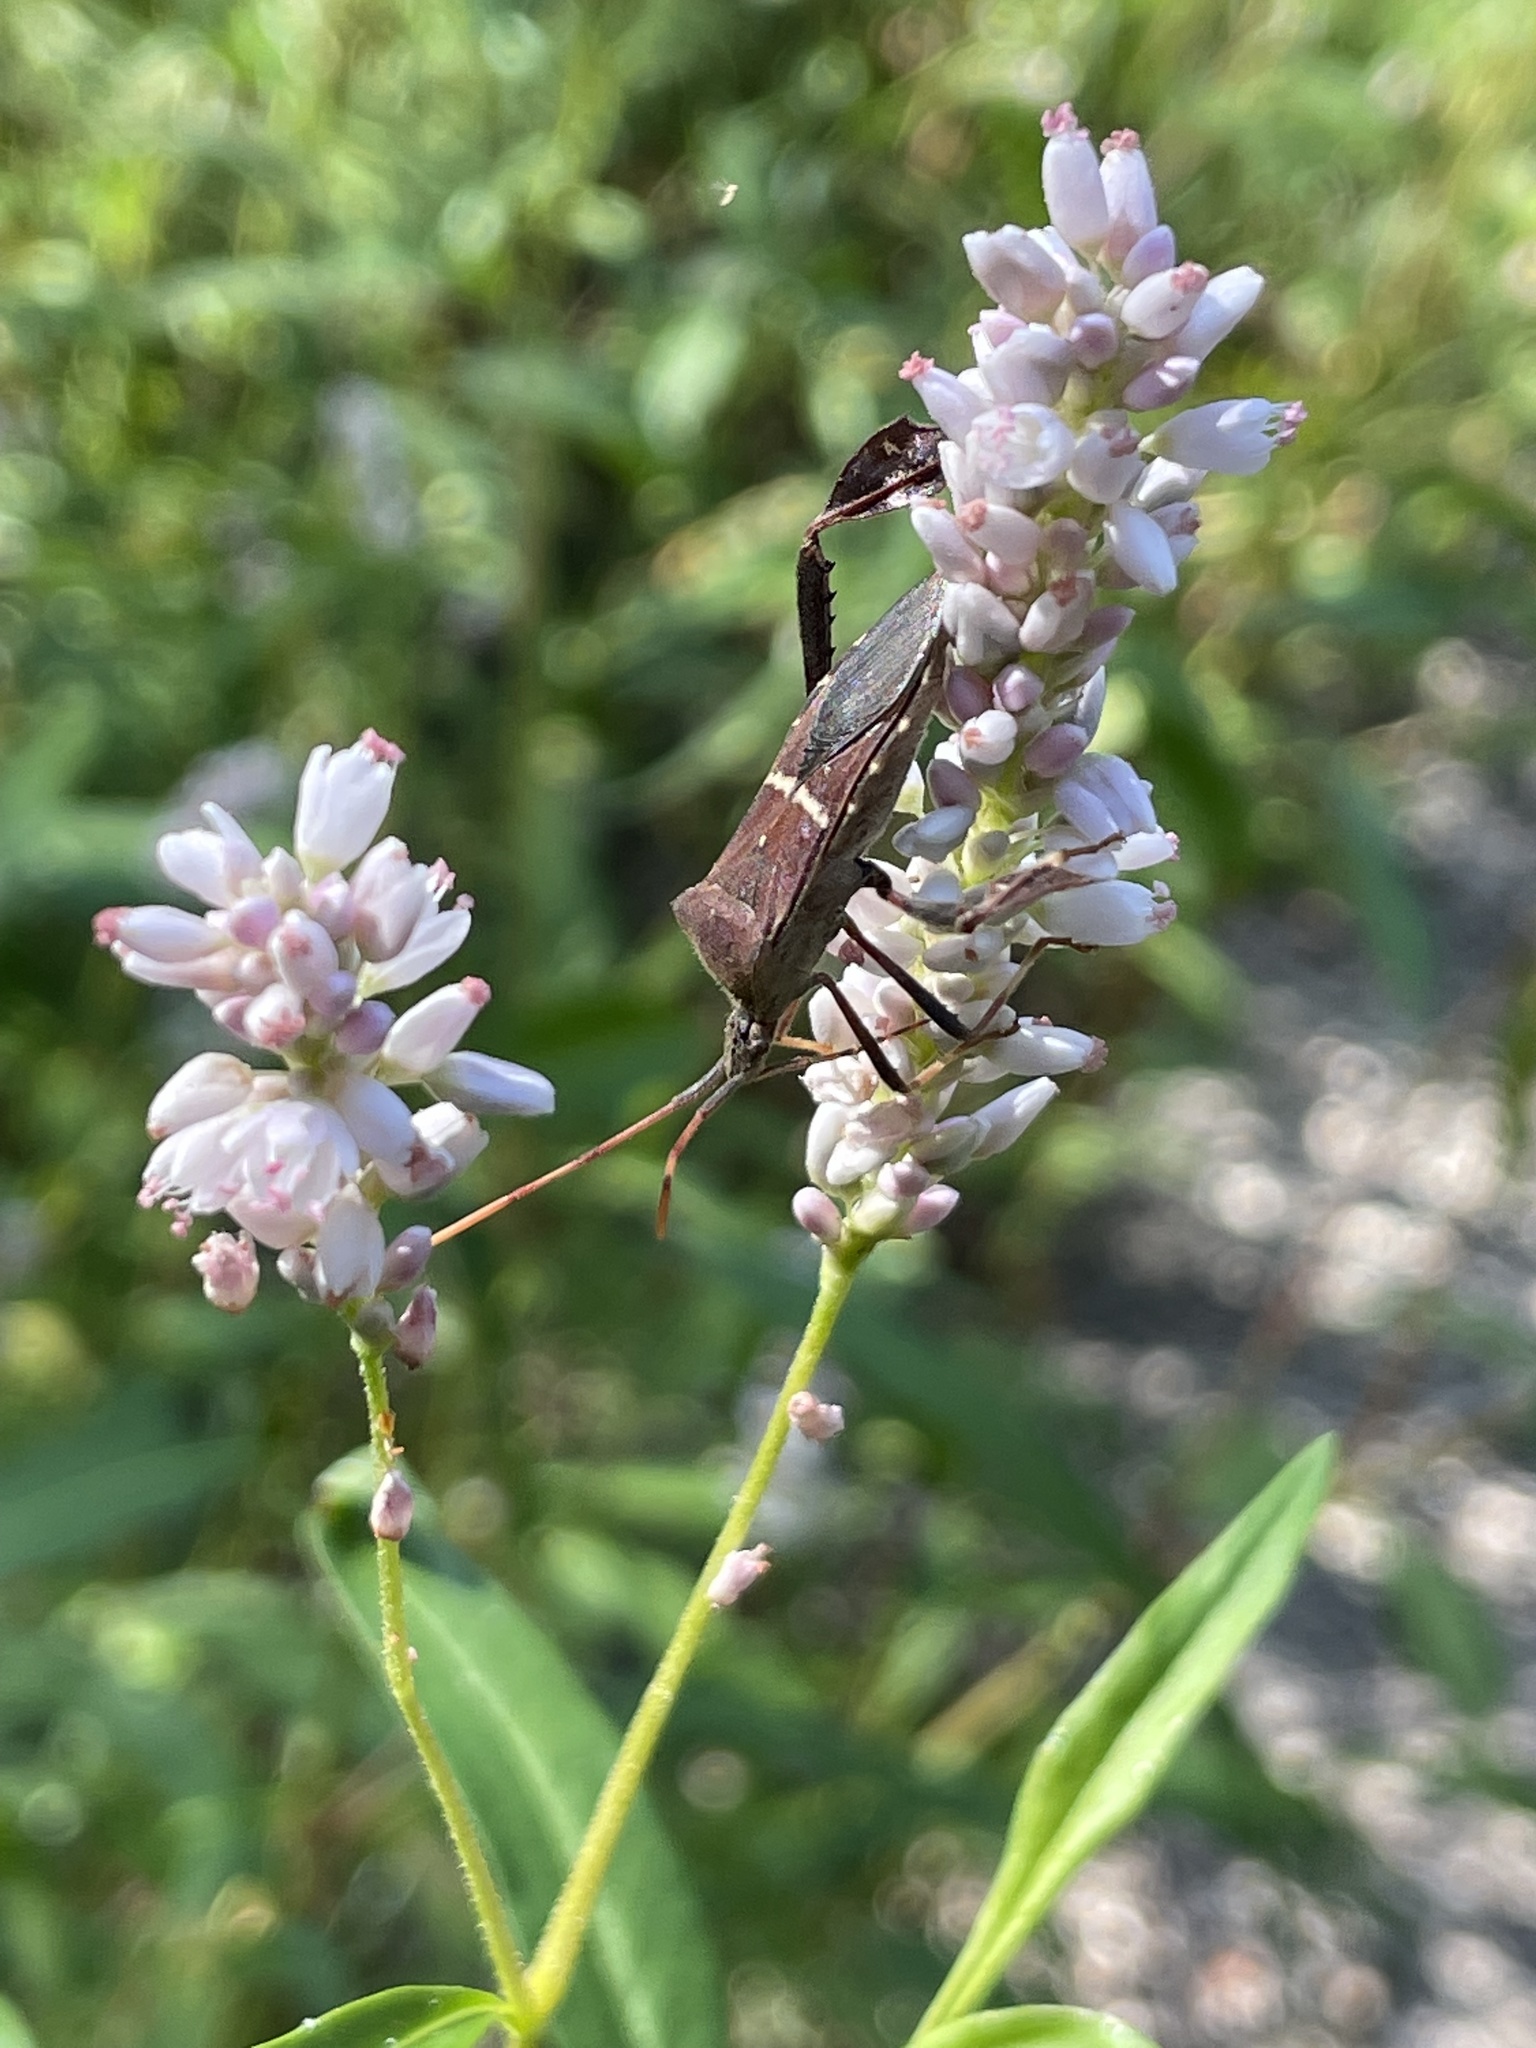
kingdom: Animalia
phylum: Arthropoda
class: Insecta
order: Hemiptera
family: Coreidae
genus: Leptoglossus
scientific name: Leptoglossus phyllopus
